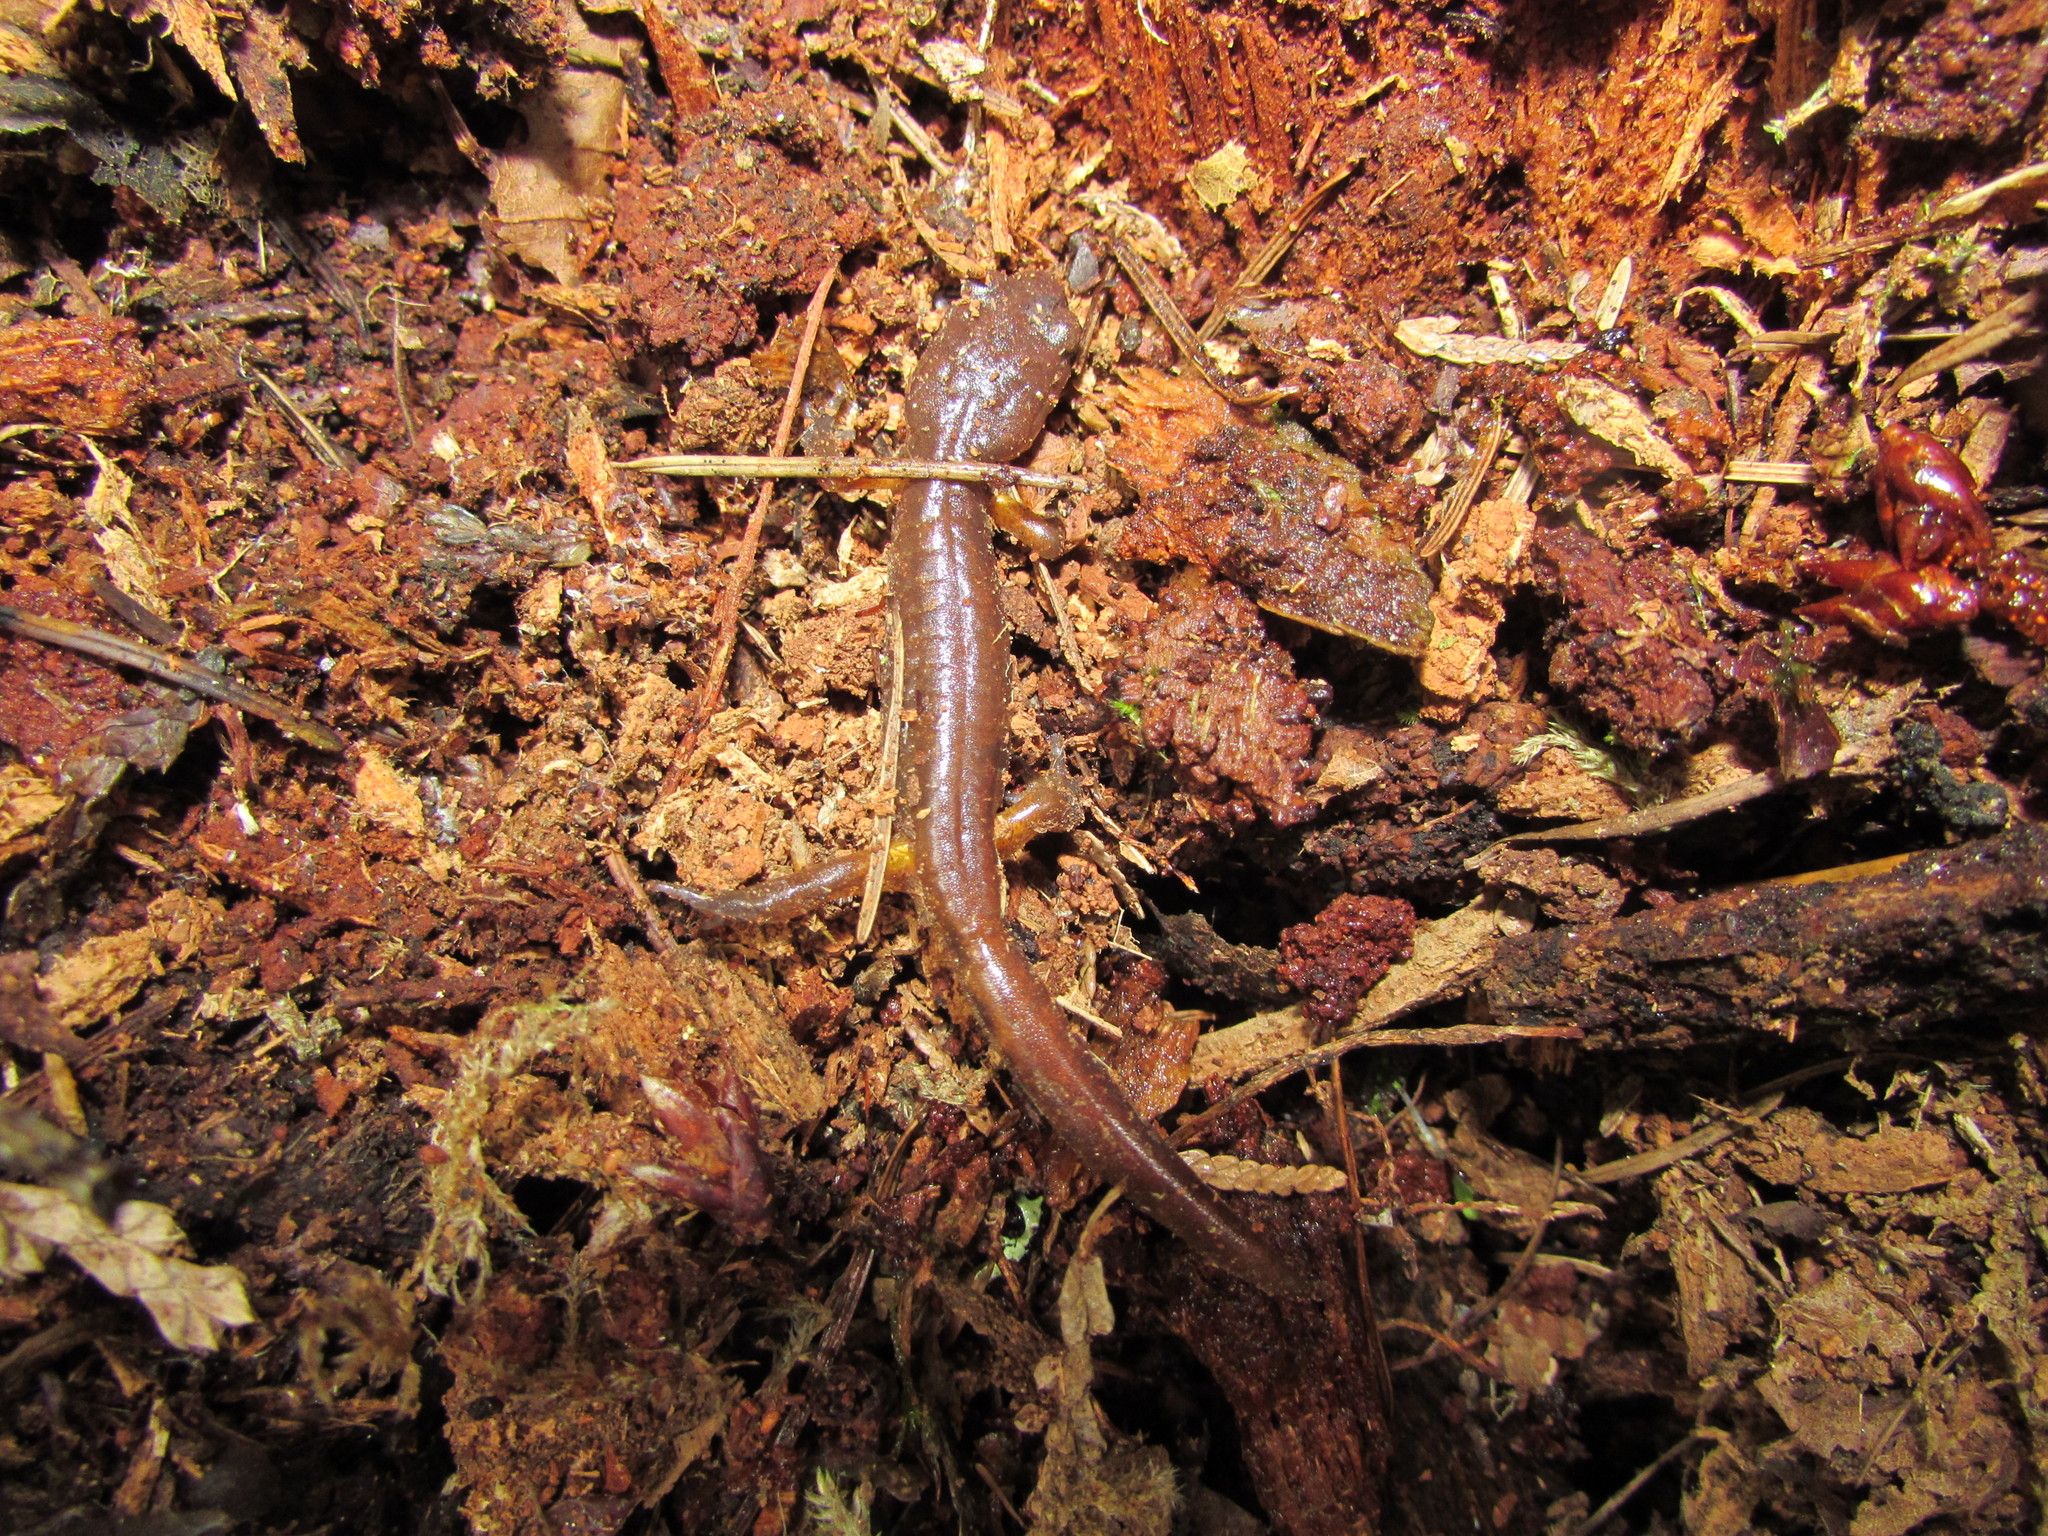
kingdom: Animalia
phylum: Chordata
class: Amphibia
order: Caudata
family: Plethodontidae
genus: Ensatina
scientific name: Ensatina eschscholtzii
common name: Ensatina
